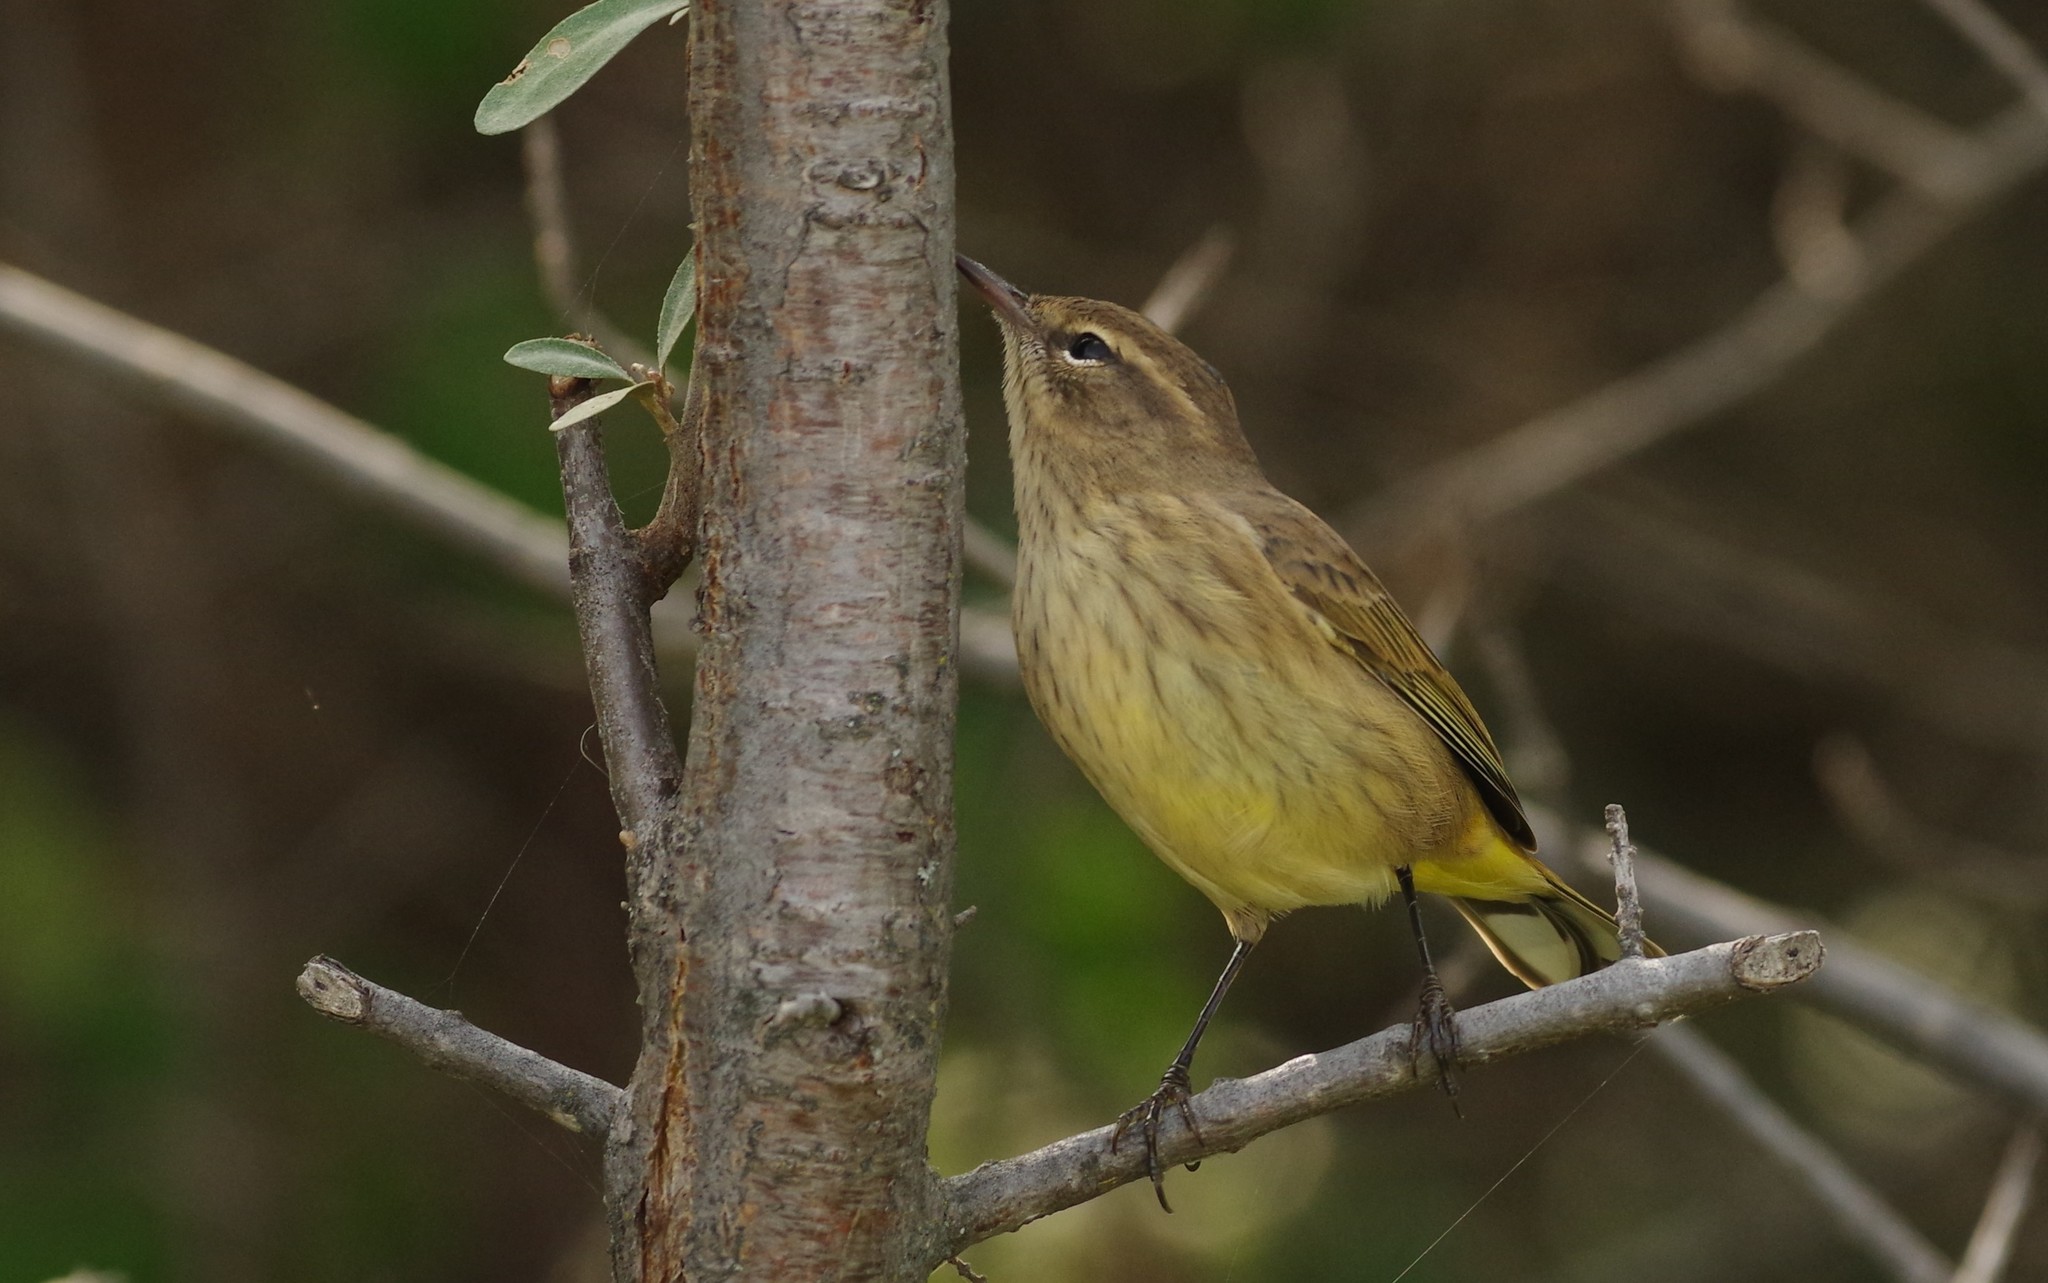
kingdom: Animalia
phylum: Chordata
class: Aves
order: Passeriformes
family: Parulidae
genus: Setophaga
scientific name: Setophaga palmarum
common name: Palm warbler
